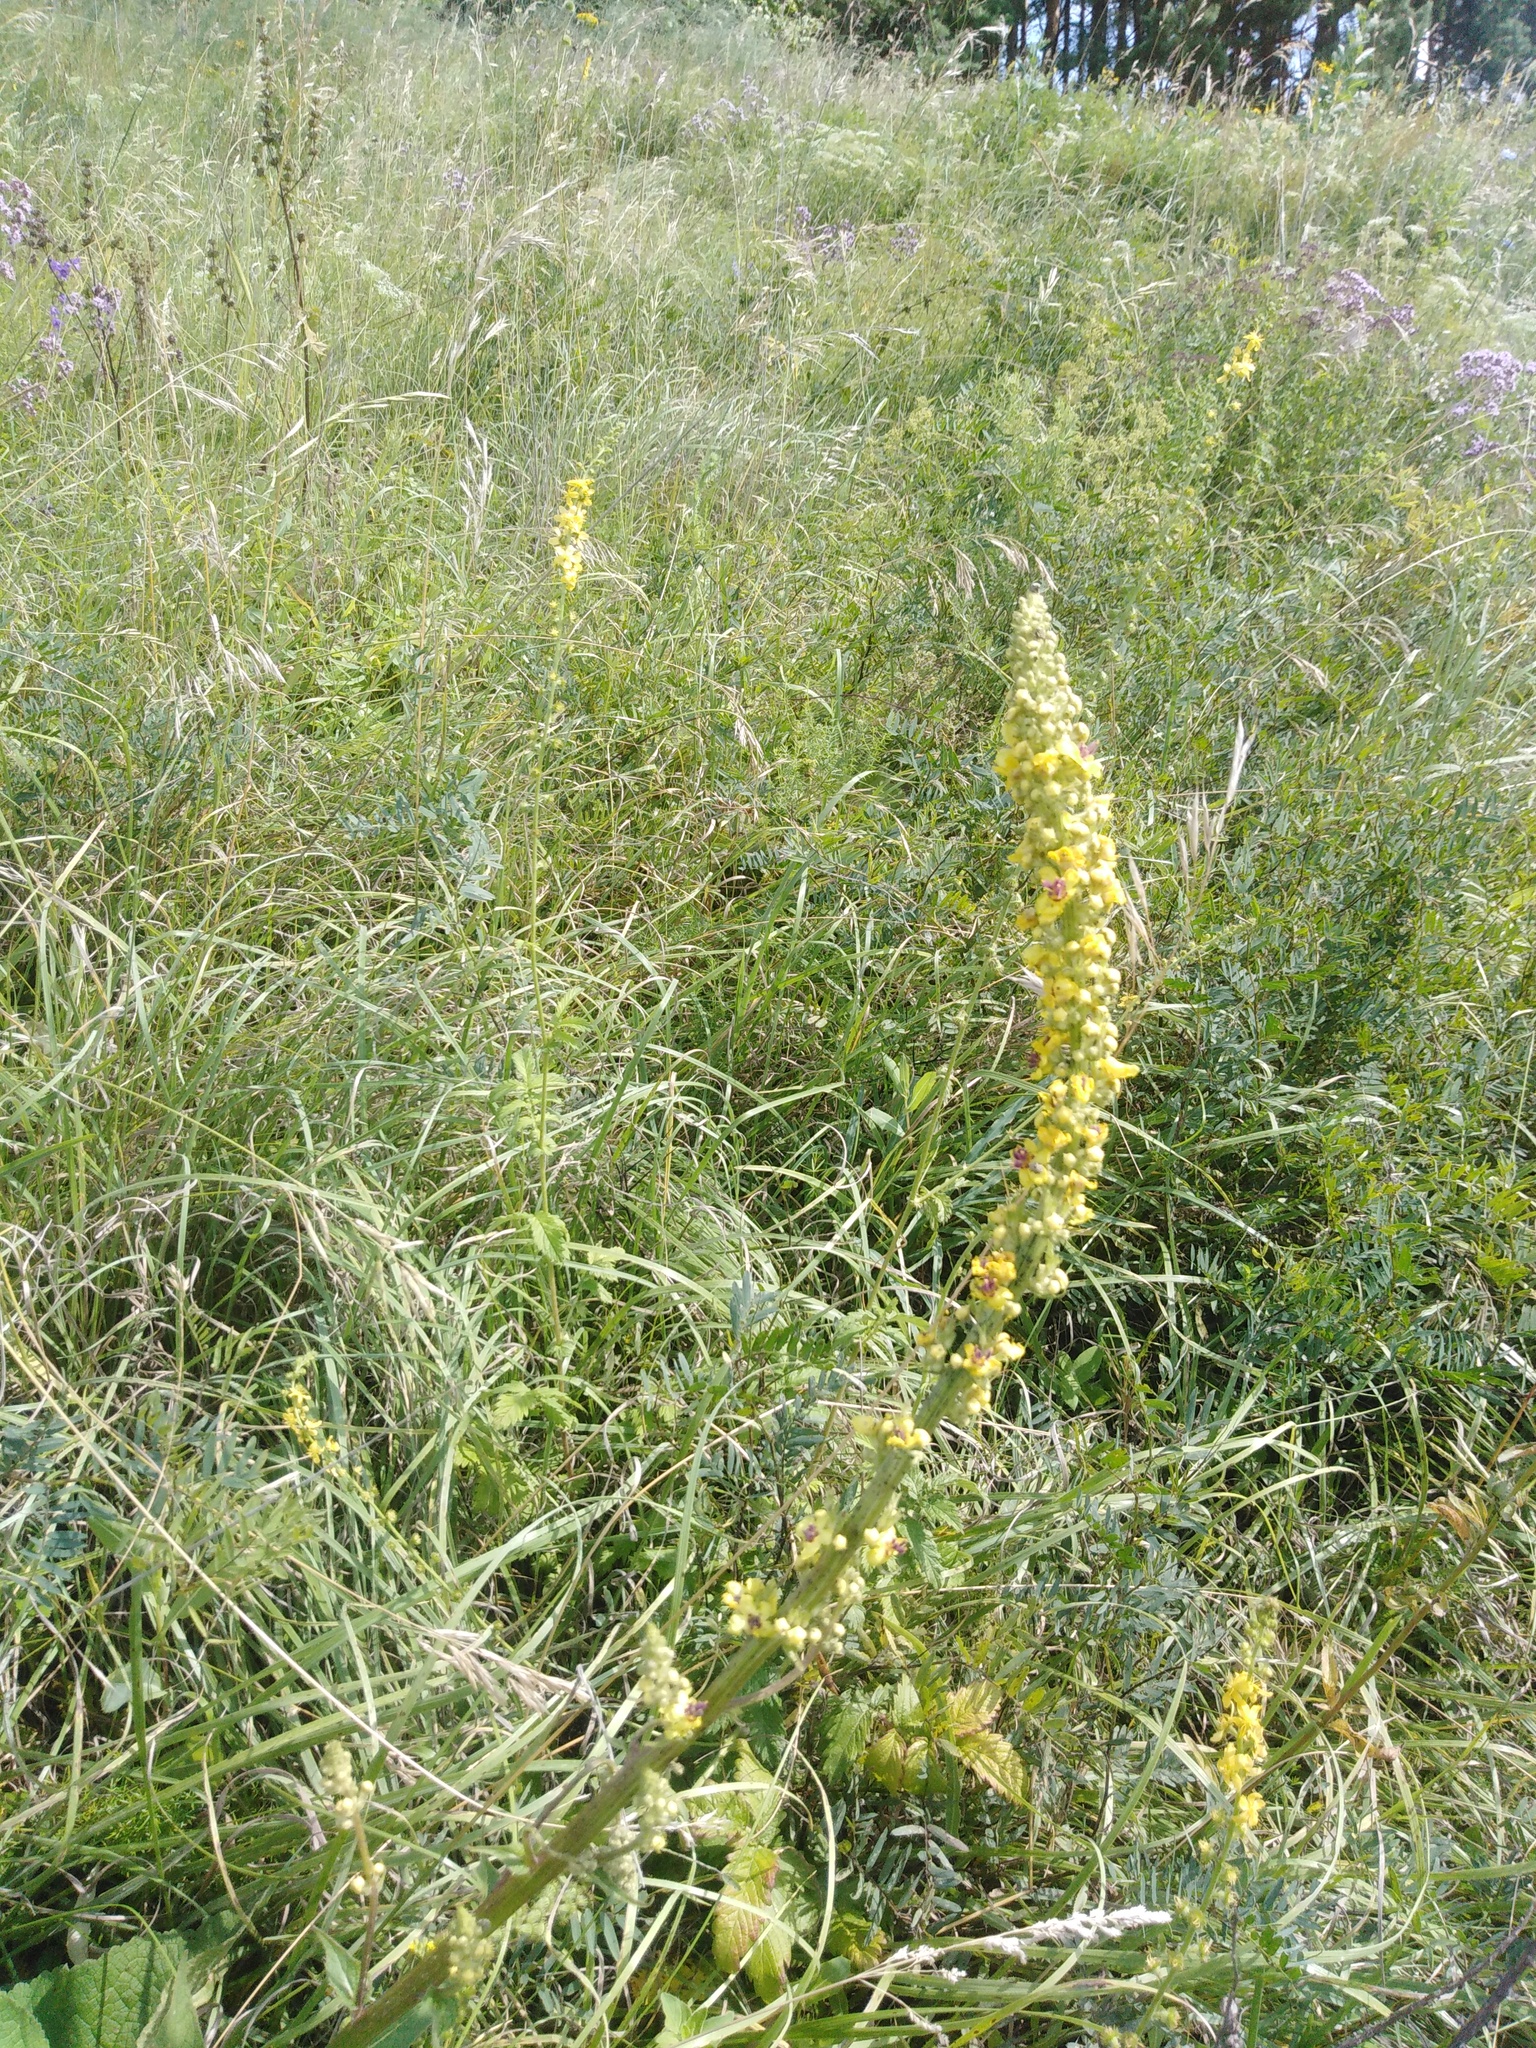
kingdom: Plantae
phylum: Tracheophyta
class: Magnoliopsida
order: Lamiales
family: Scrophulariaceae
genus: Verbascum
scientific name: Verbascum nigrum
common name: Dark mullein
